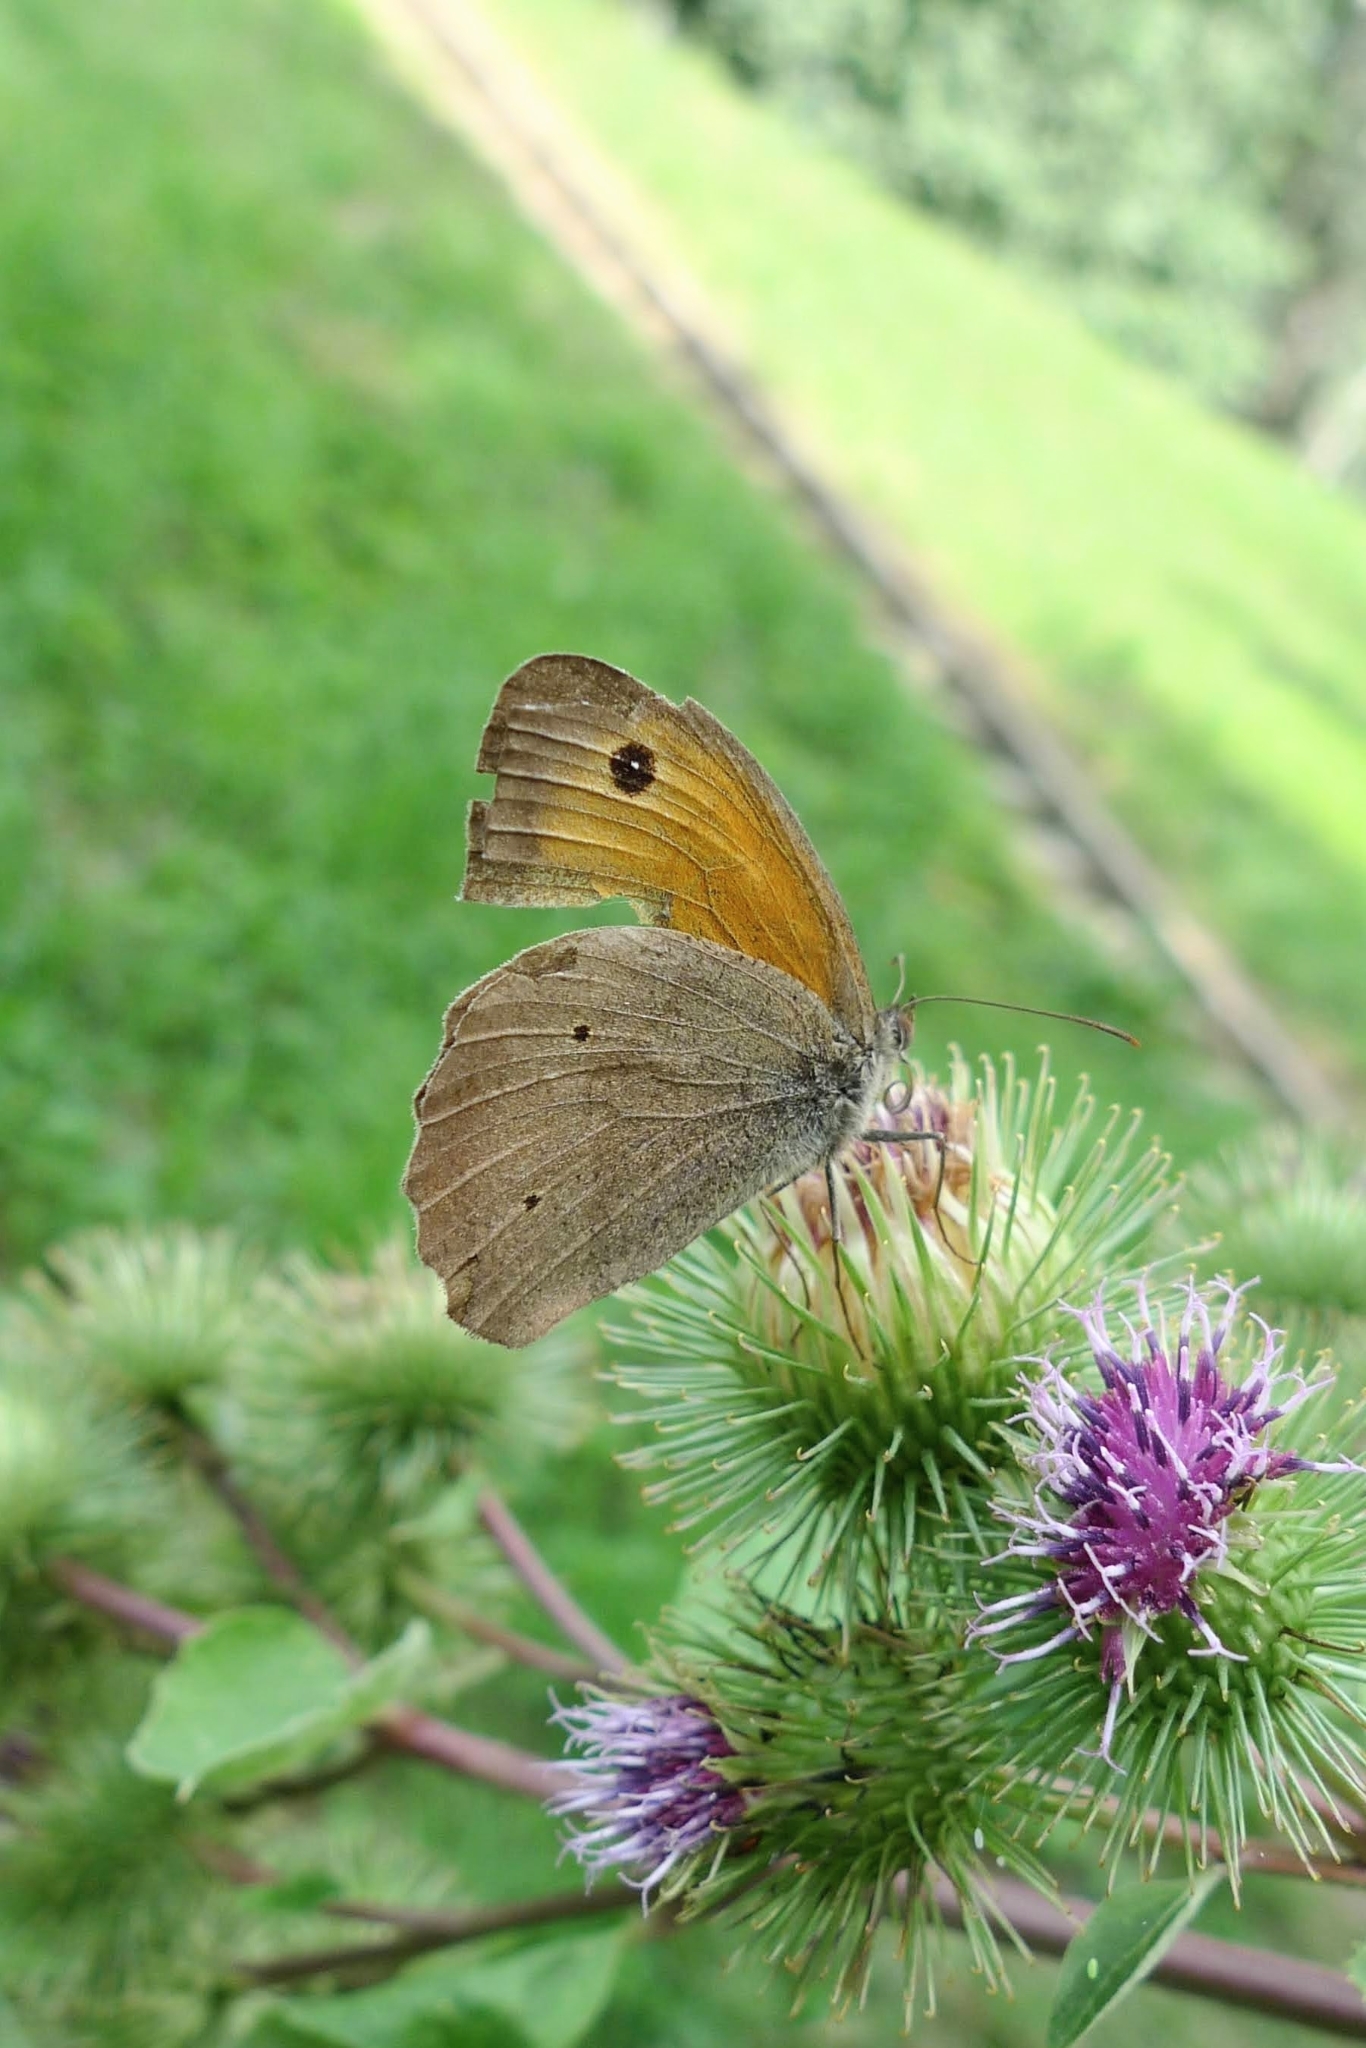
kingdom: Animalia
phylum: Arthropoda
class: Insecta
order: Lepidoptera
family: Nymphalidae
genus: Maniola
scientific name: Maniola jurtina
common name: Meadow brown
